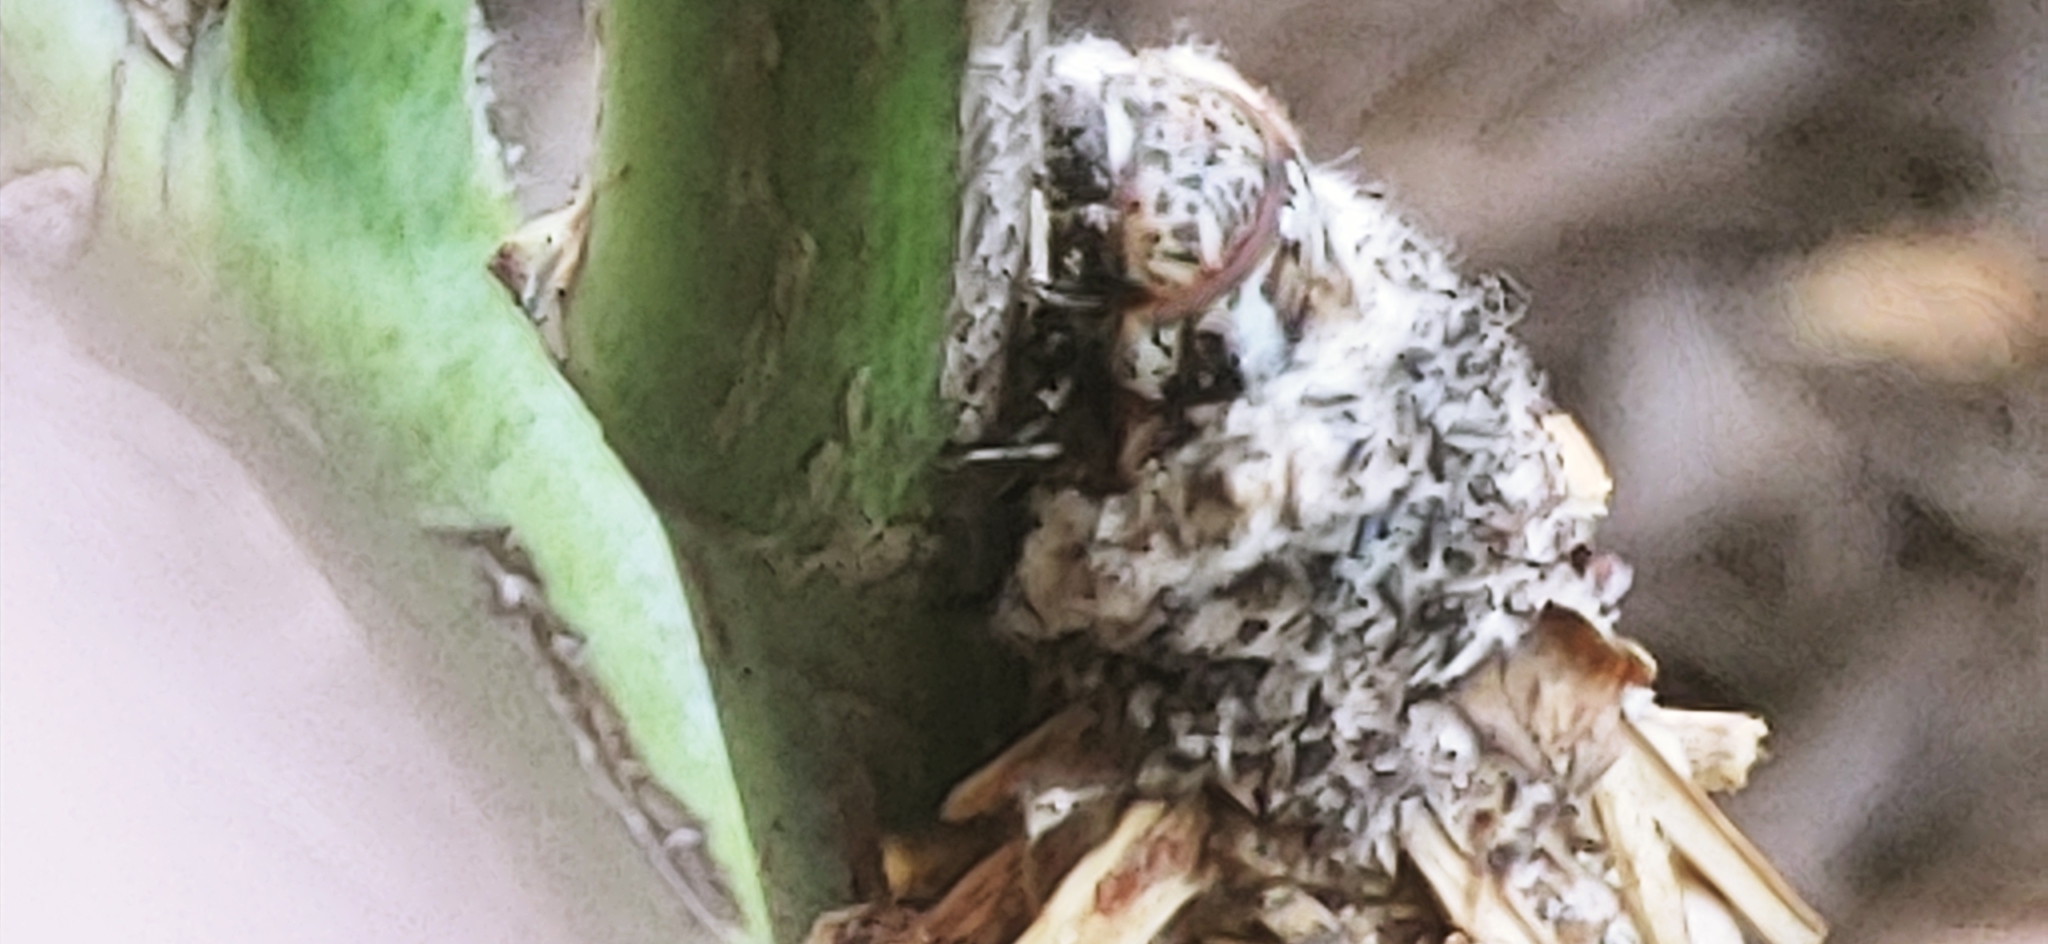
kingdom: Animalia
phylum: Arthropoda
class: Insecta
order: Lepidoptera
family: Psychidae
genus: Oiketicus
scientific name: Oiketicus
